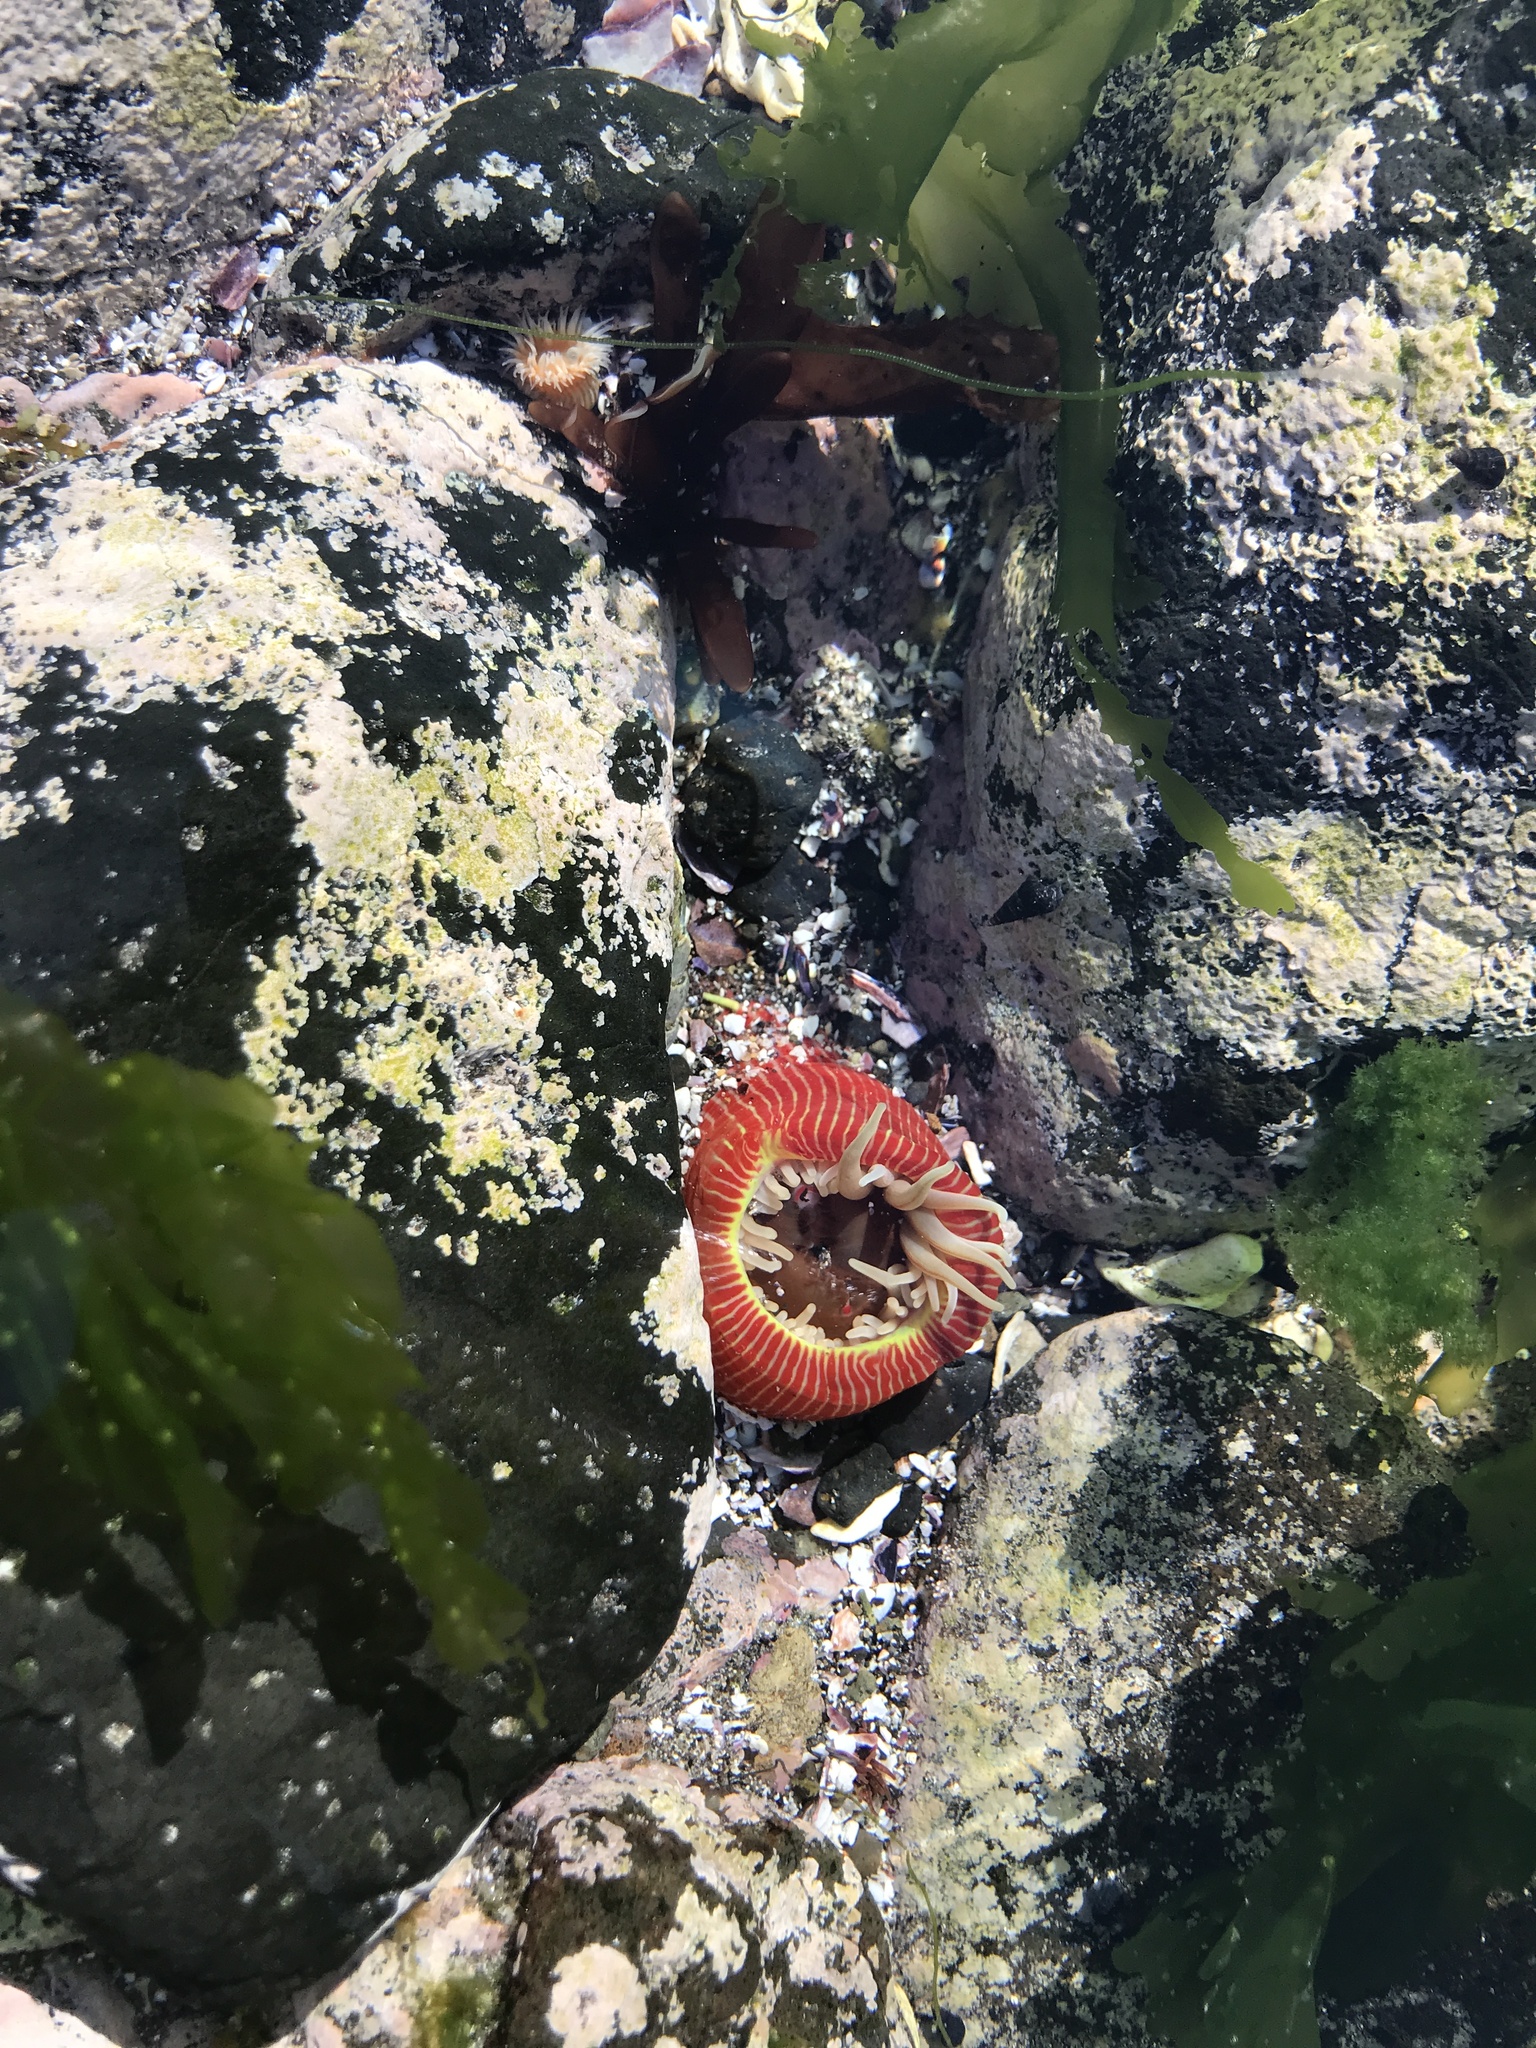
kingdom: Animalia
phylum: Cnidaria
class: Anthozoa
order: Actiniaria
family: Actiniidae
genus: Epiactis
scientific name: Epiactis thompsoni
